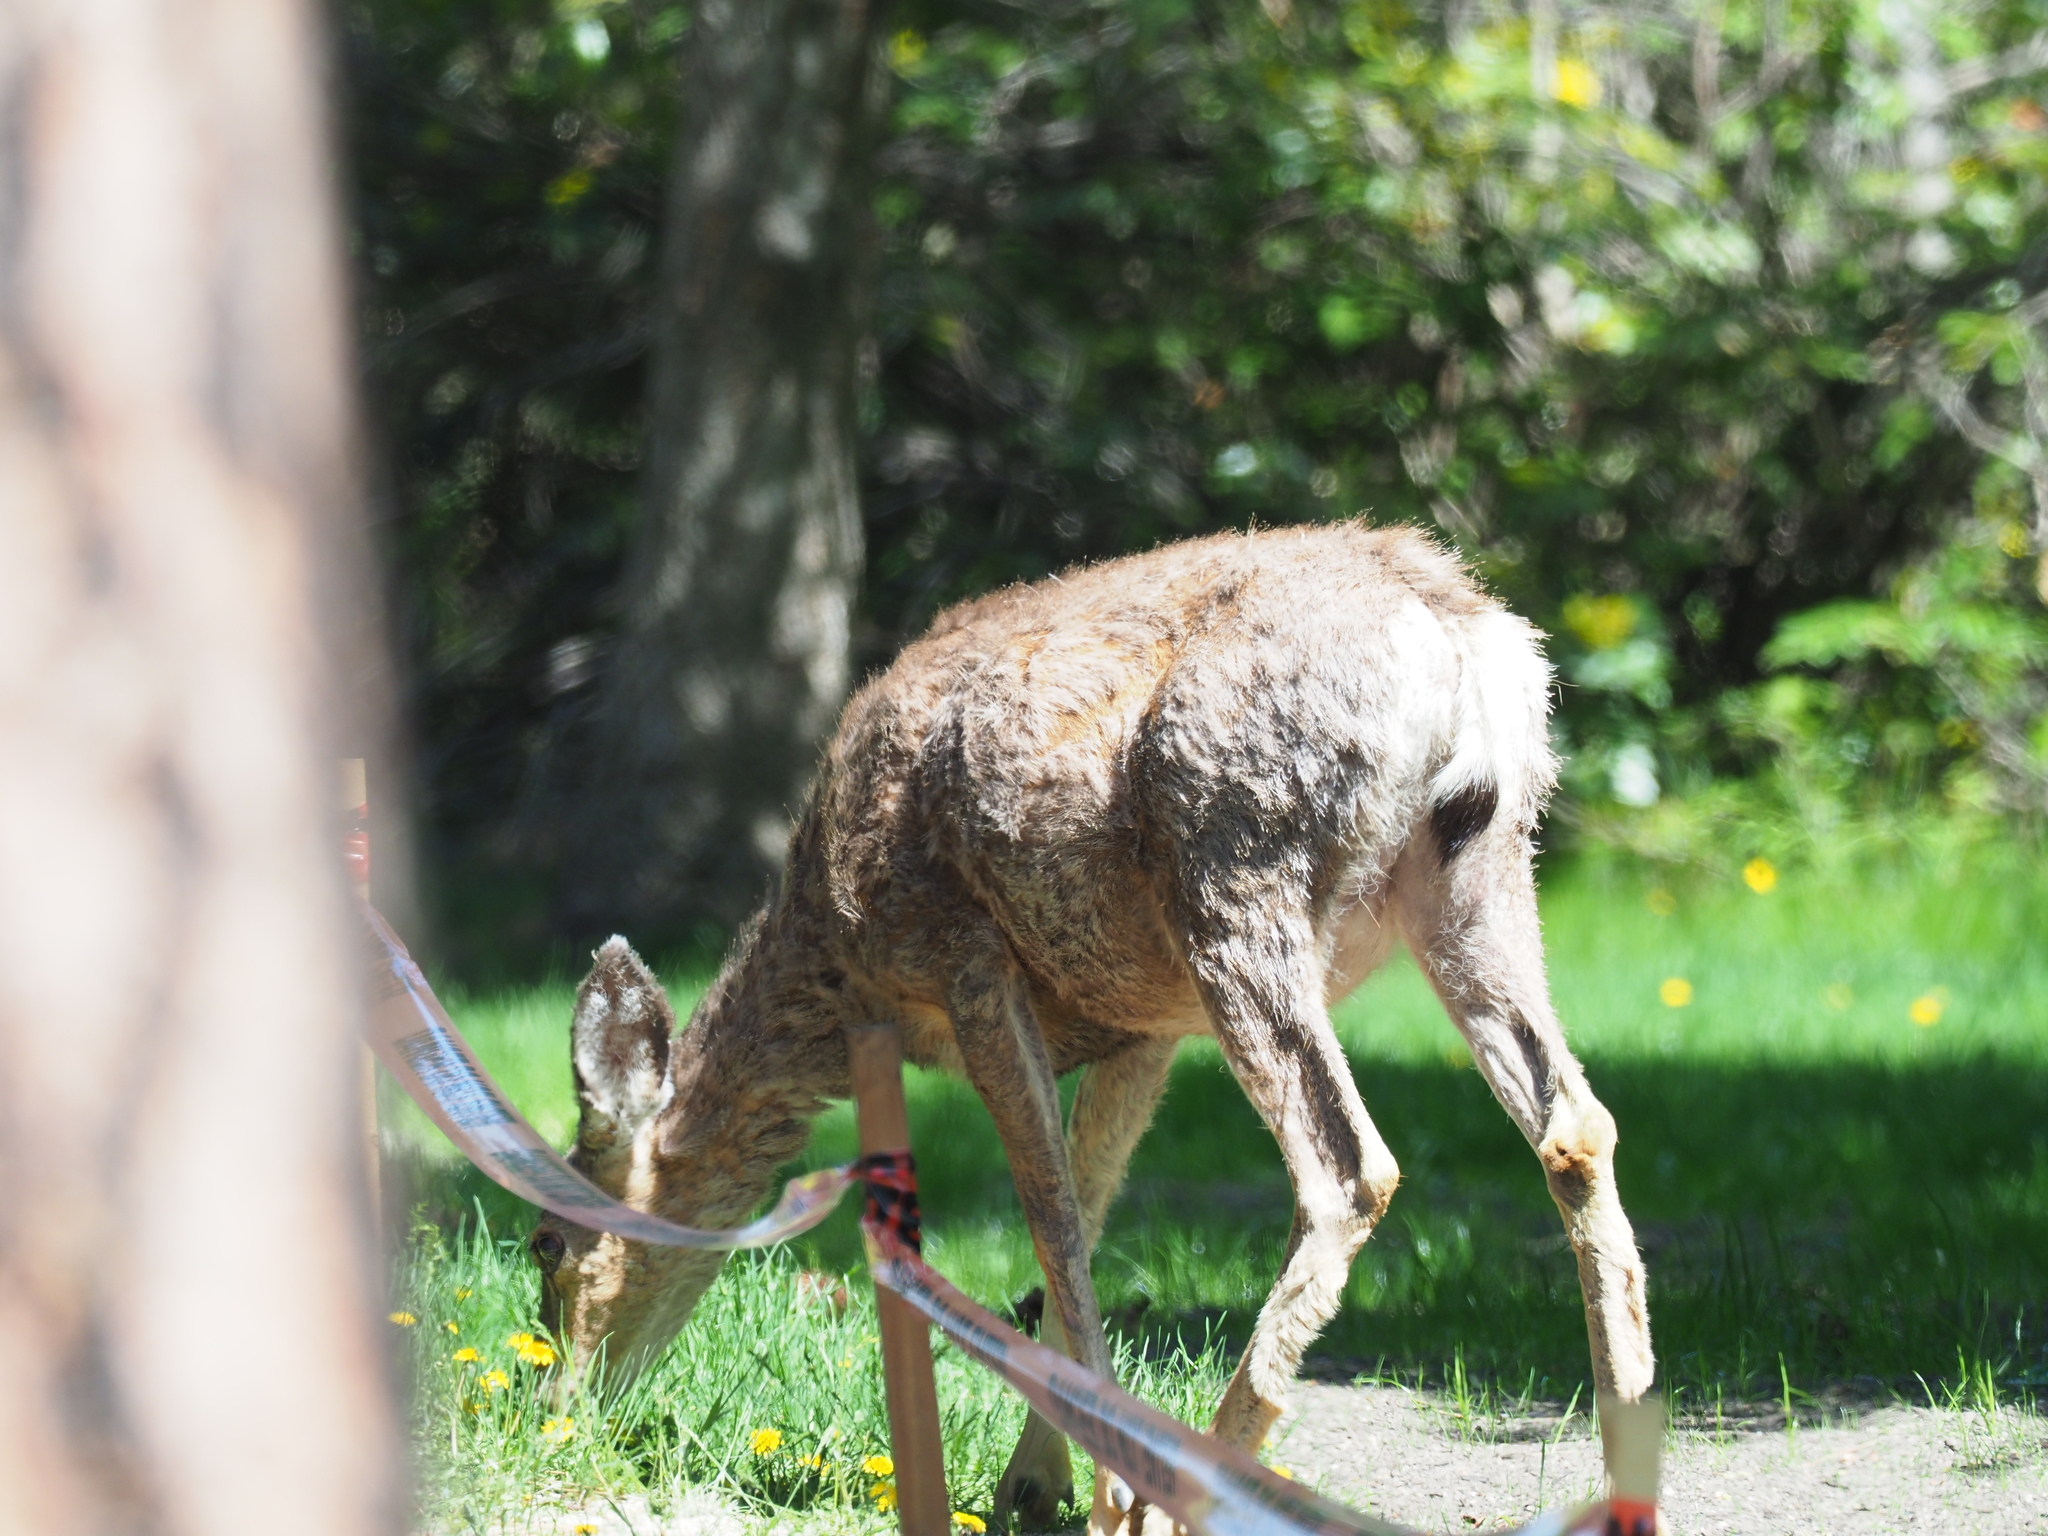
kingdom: Animalia
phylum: Chordata
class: Mammalia
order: Artiodactyla
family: Cervidae
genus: Odocoileus
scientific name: Odocoileus hemionus
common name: Mule deer
